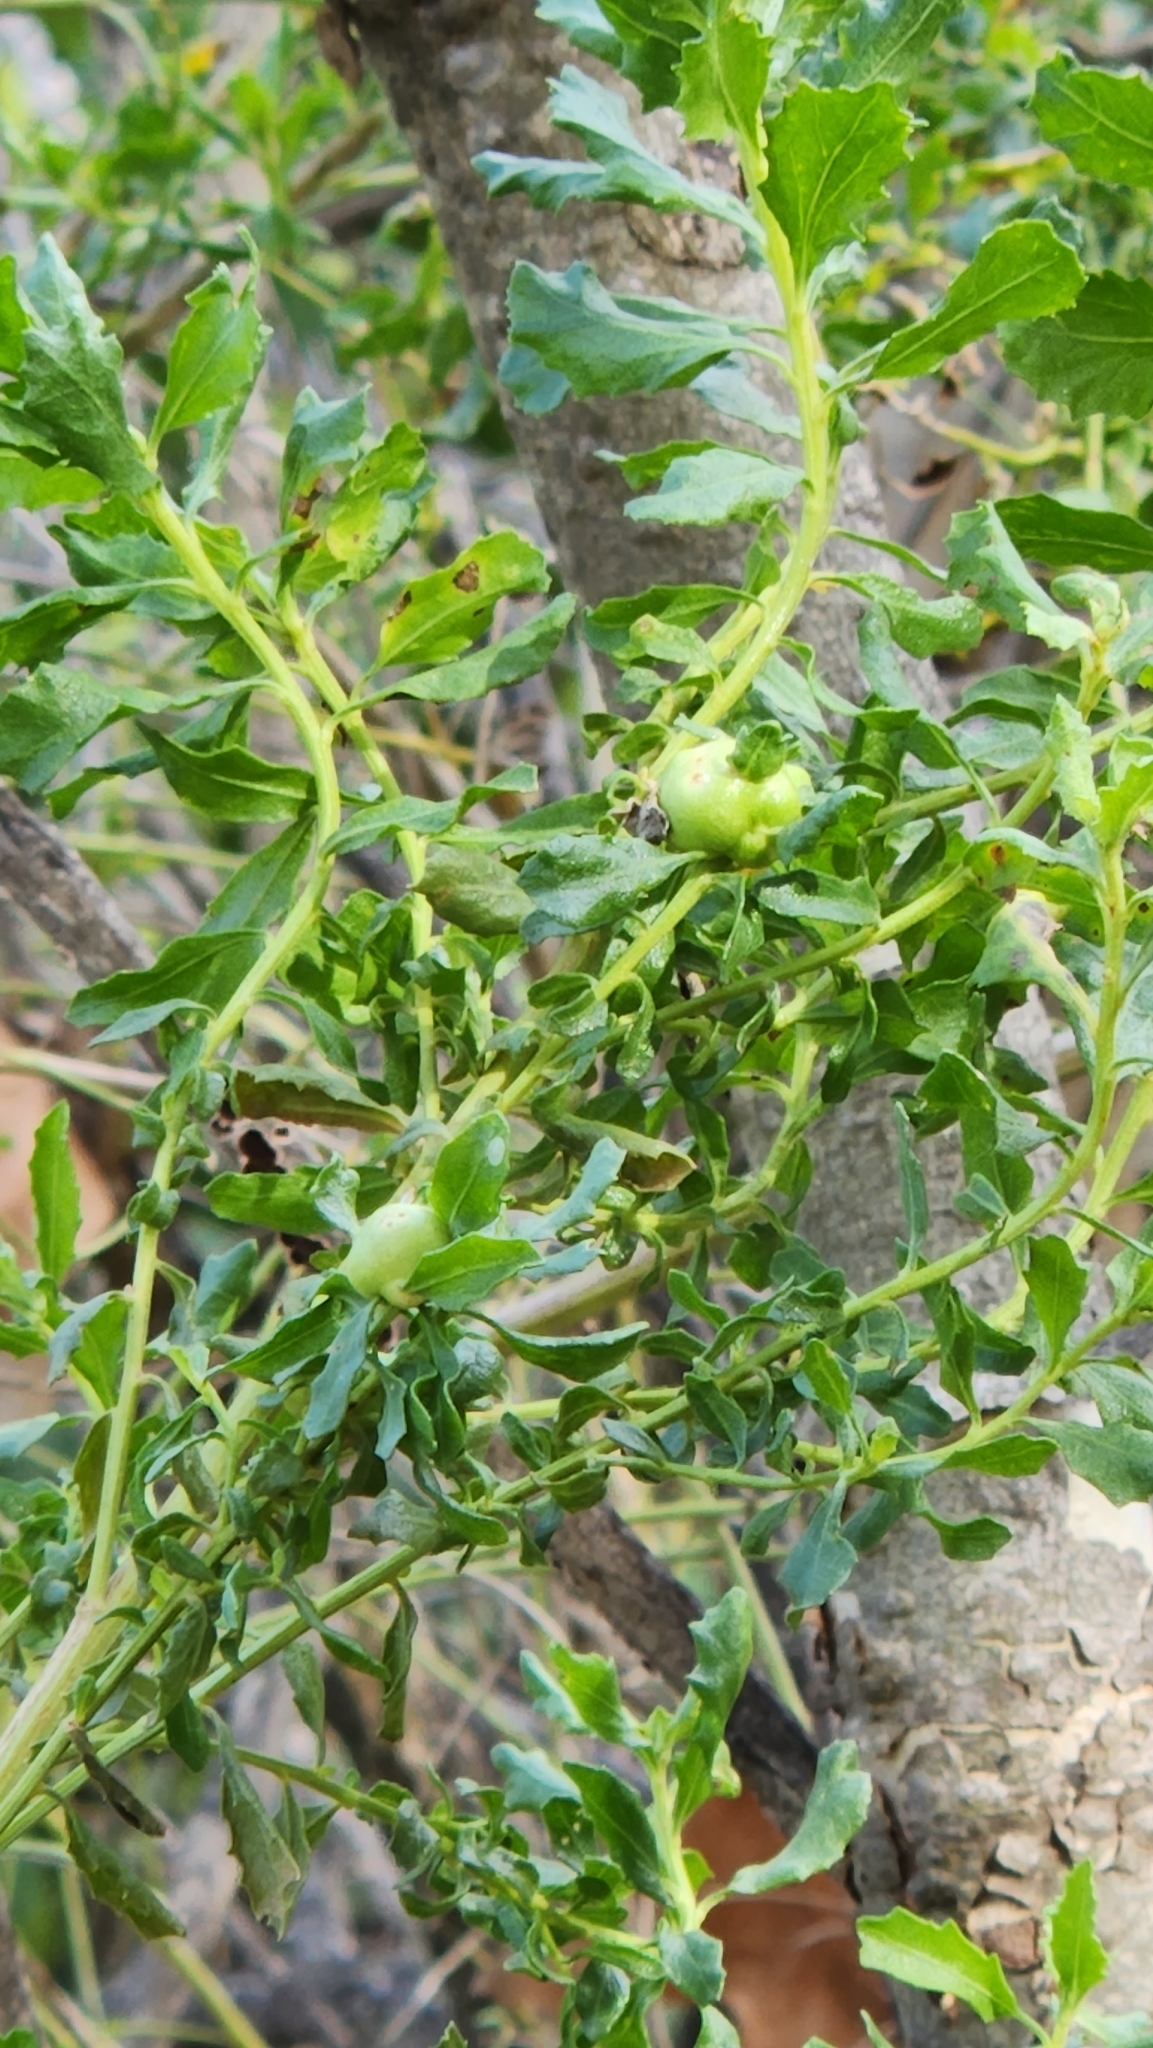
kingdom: Plantae
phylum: Tracheophyta
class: Magnoliopsida
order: Asterales
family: Asteraceae
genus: Baccharis
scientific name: Baccharis pilularis
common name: Coyotebrush
